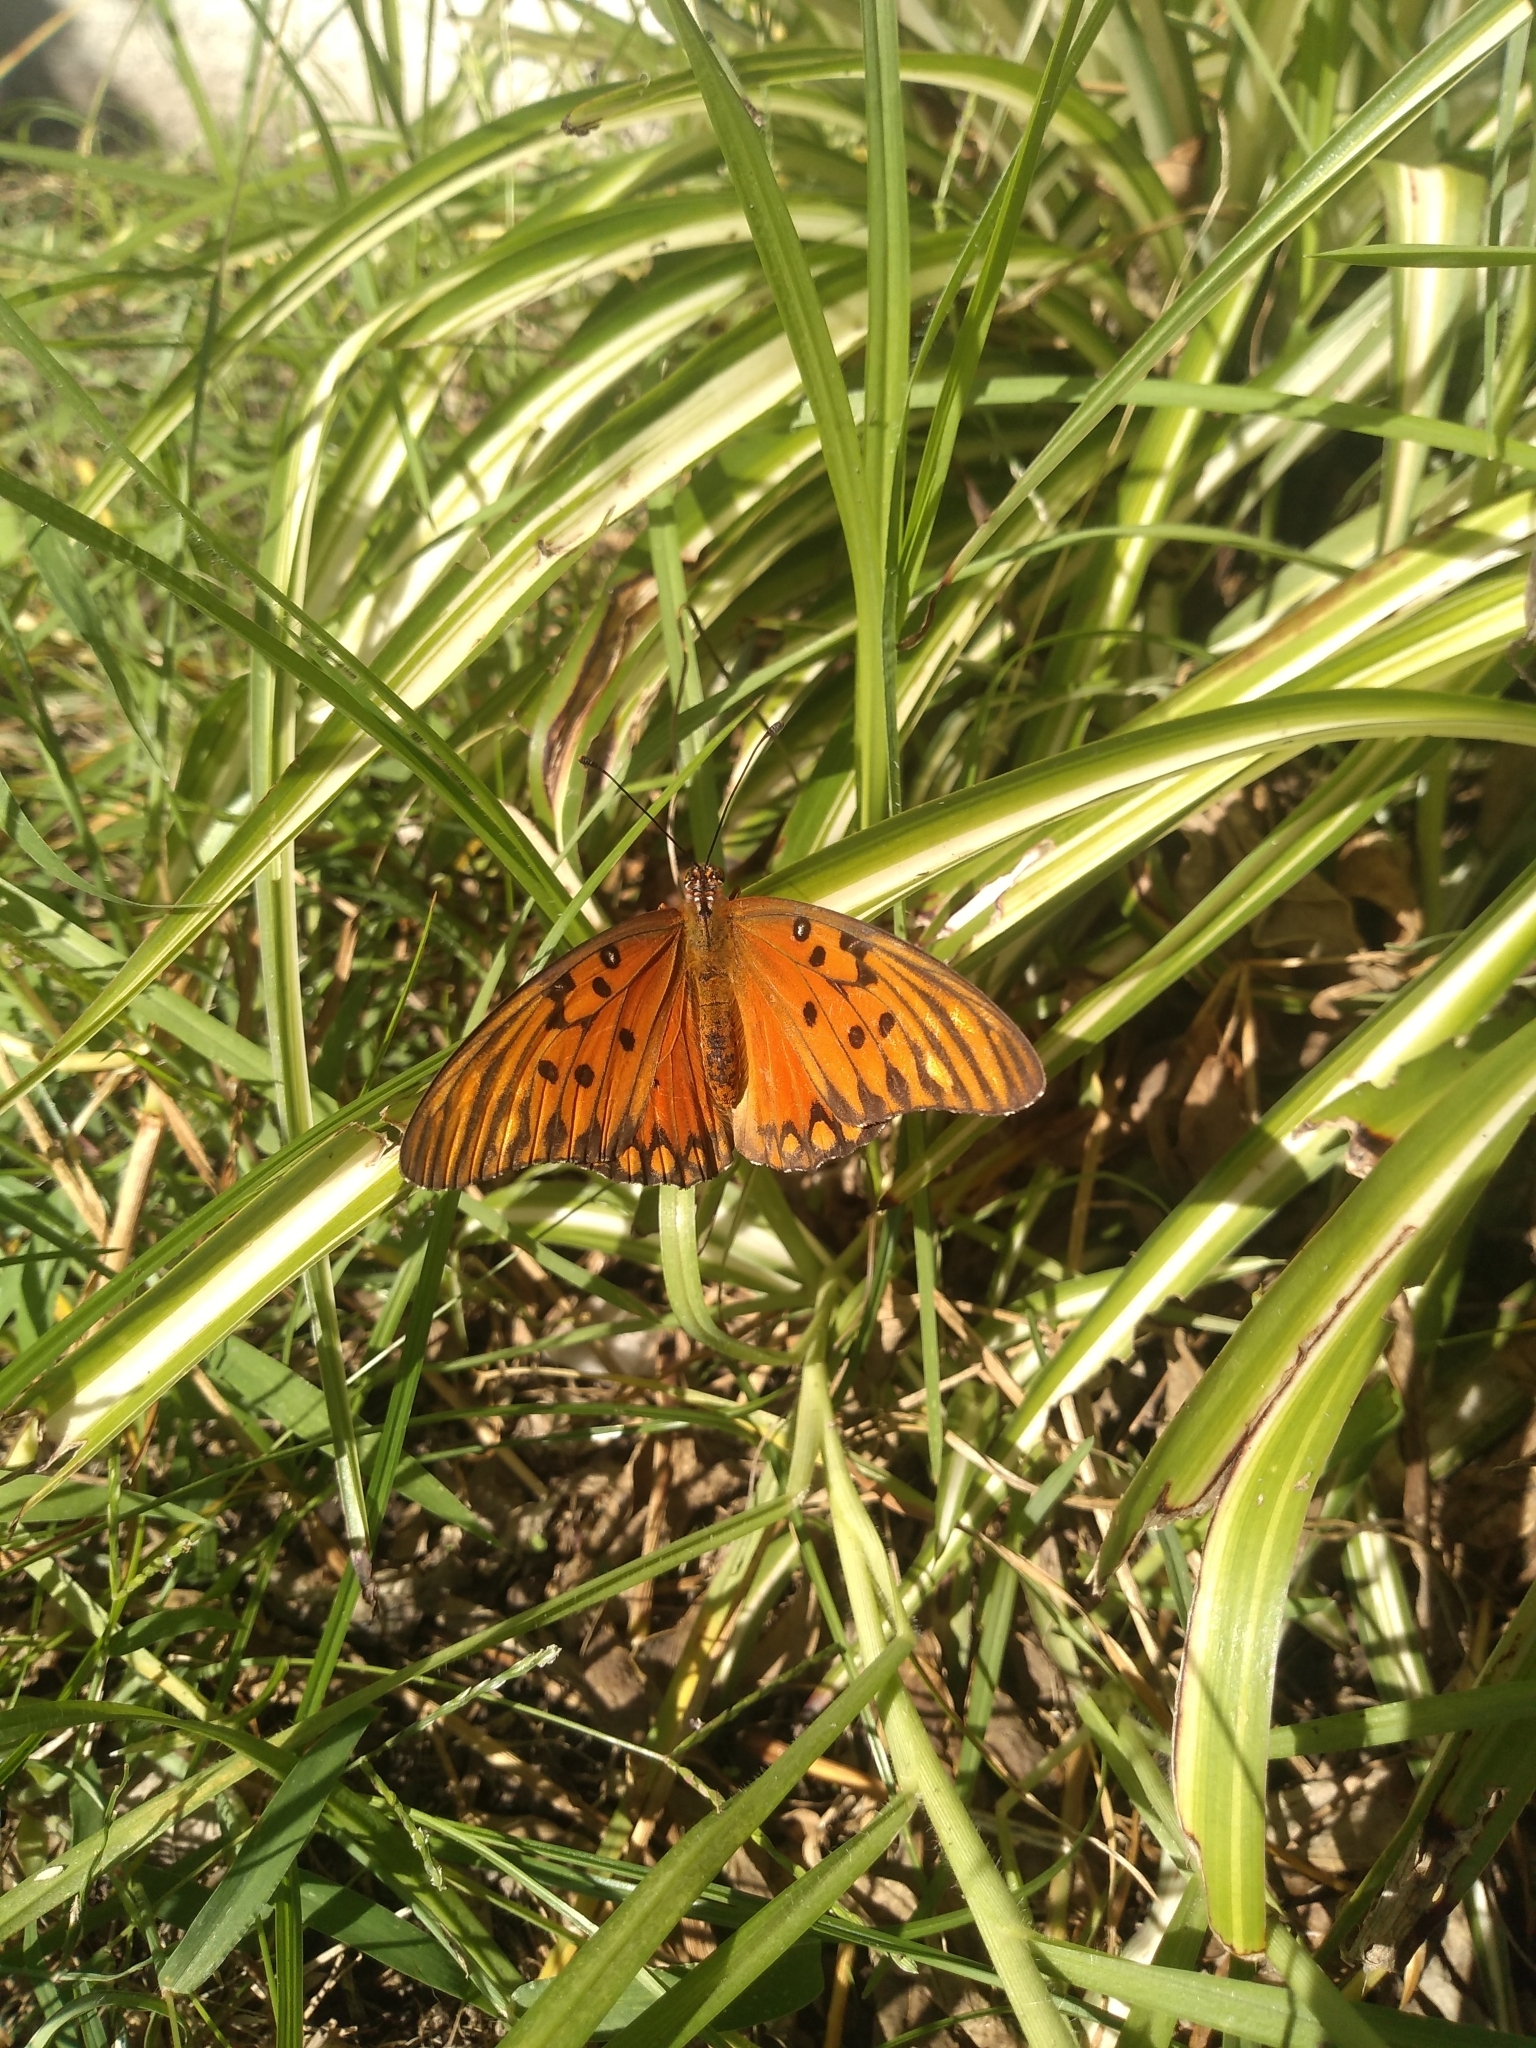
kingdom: Animalia
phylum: Arthropoda
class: Insecta
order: Lepidoptera
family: Nymphalidae
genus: Dione
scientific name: Dione vanillae
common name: Gulf fritillary
